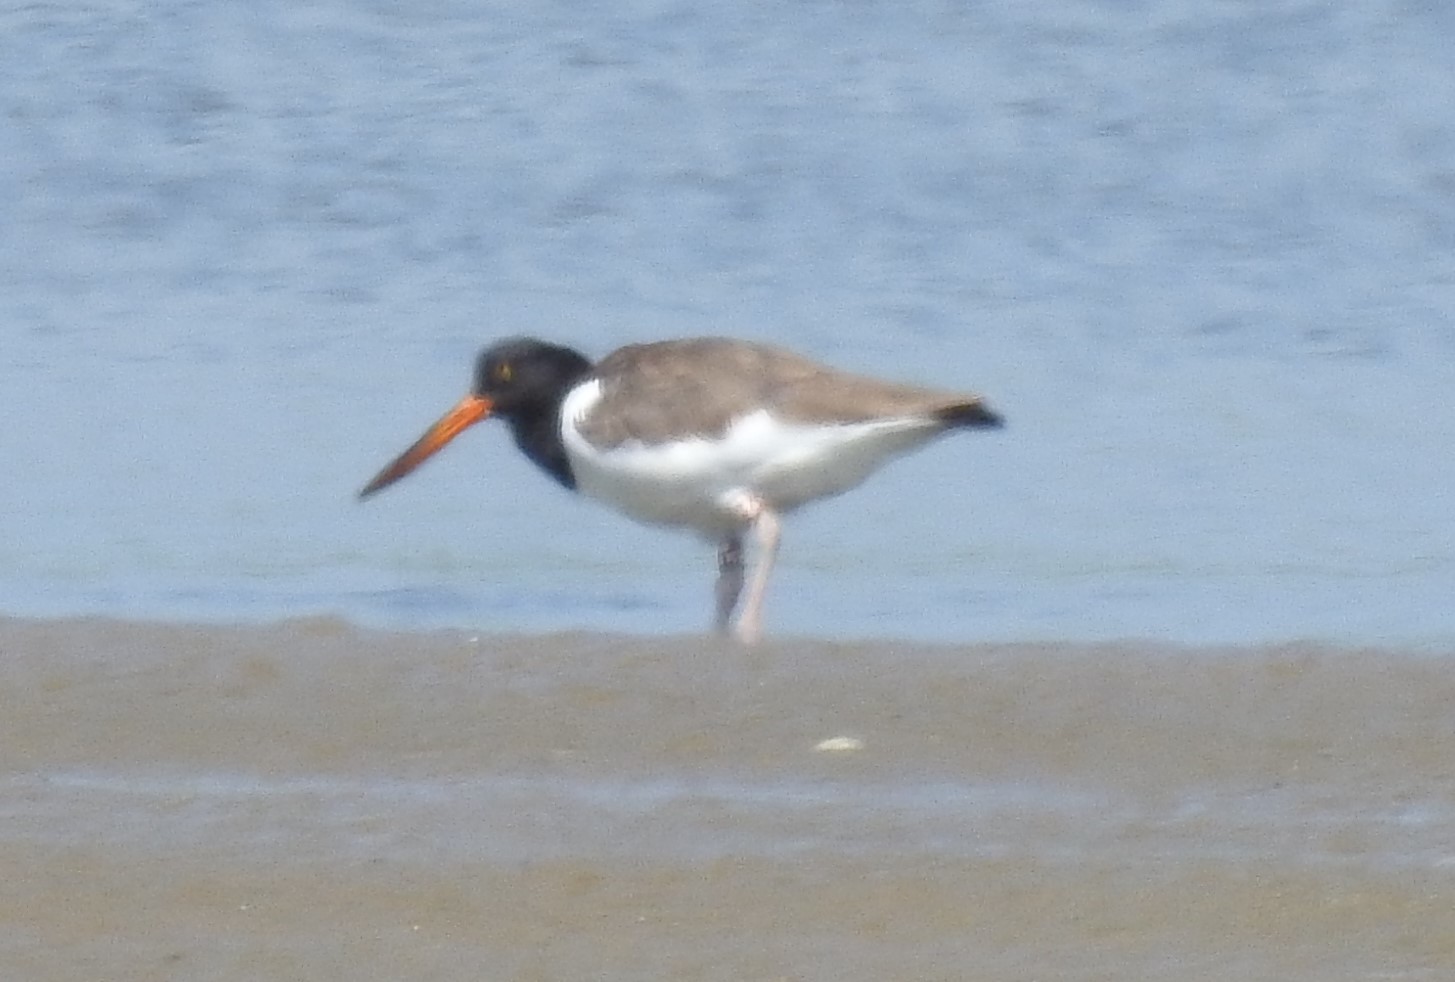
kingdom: Animalia
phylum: Chordata
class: Aves
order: Charadriiformes
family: Haematopodidae
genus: Haematopus
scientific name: Haematopus palliatus
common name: American oystercatcher
